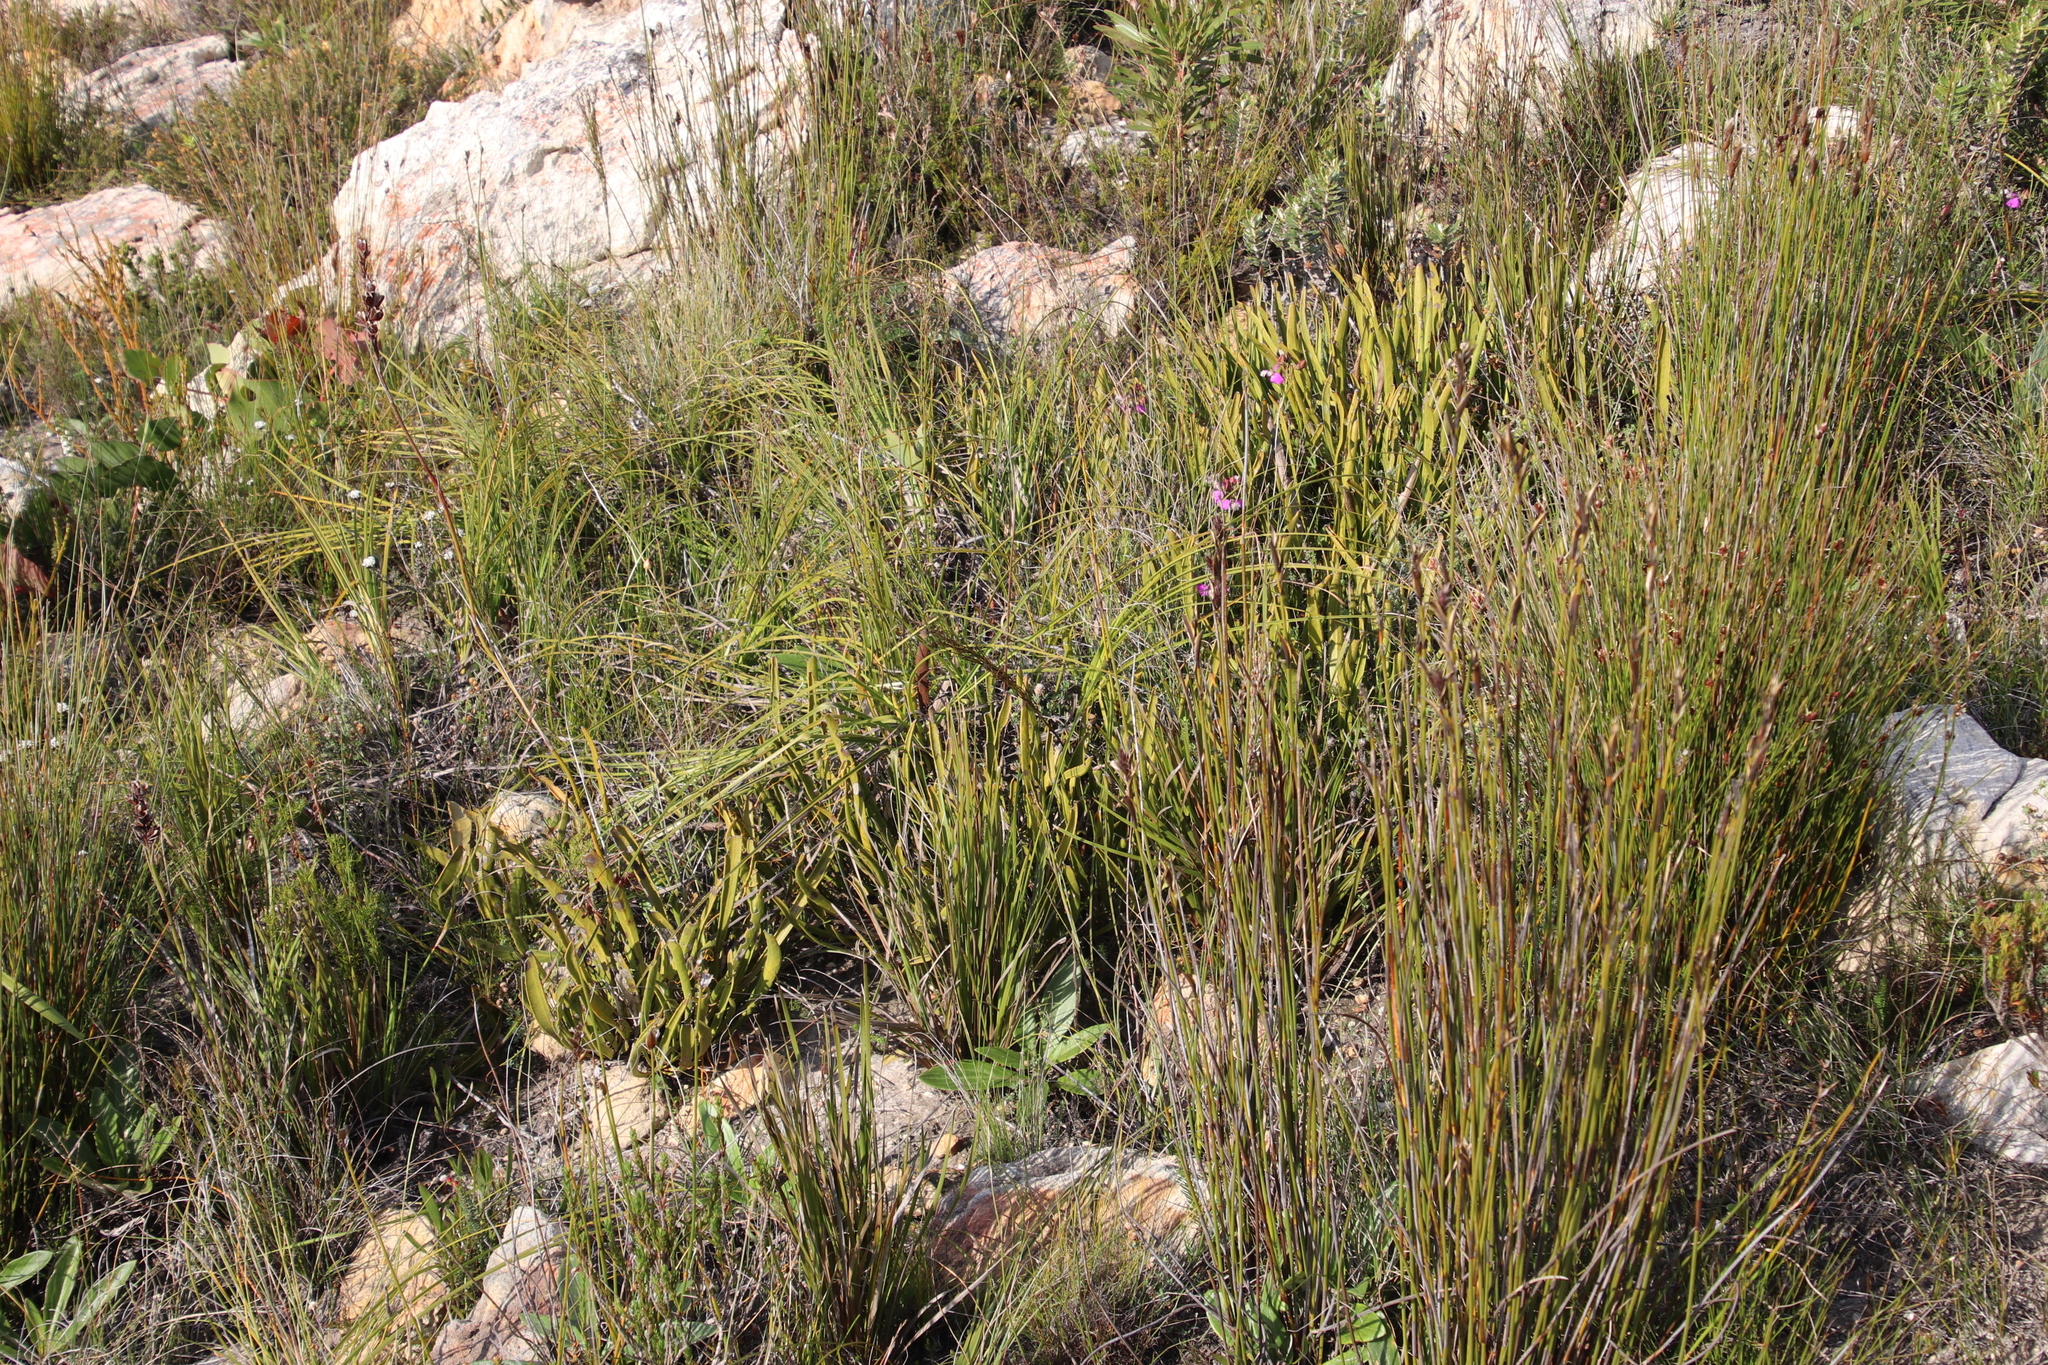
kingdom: Plantae
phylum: Tracheophyta
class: Magnoliopsida
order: Proteales
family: Proteaceae
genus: Protea
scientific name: Protea scabra
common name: Sandpaper-leaf sugarbush
